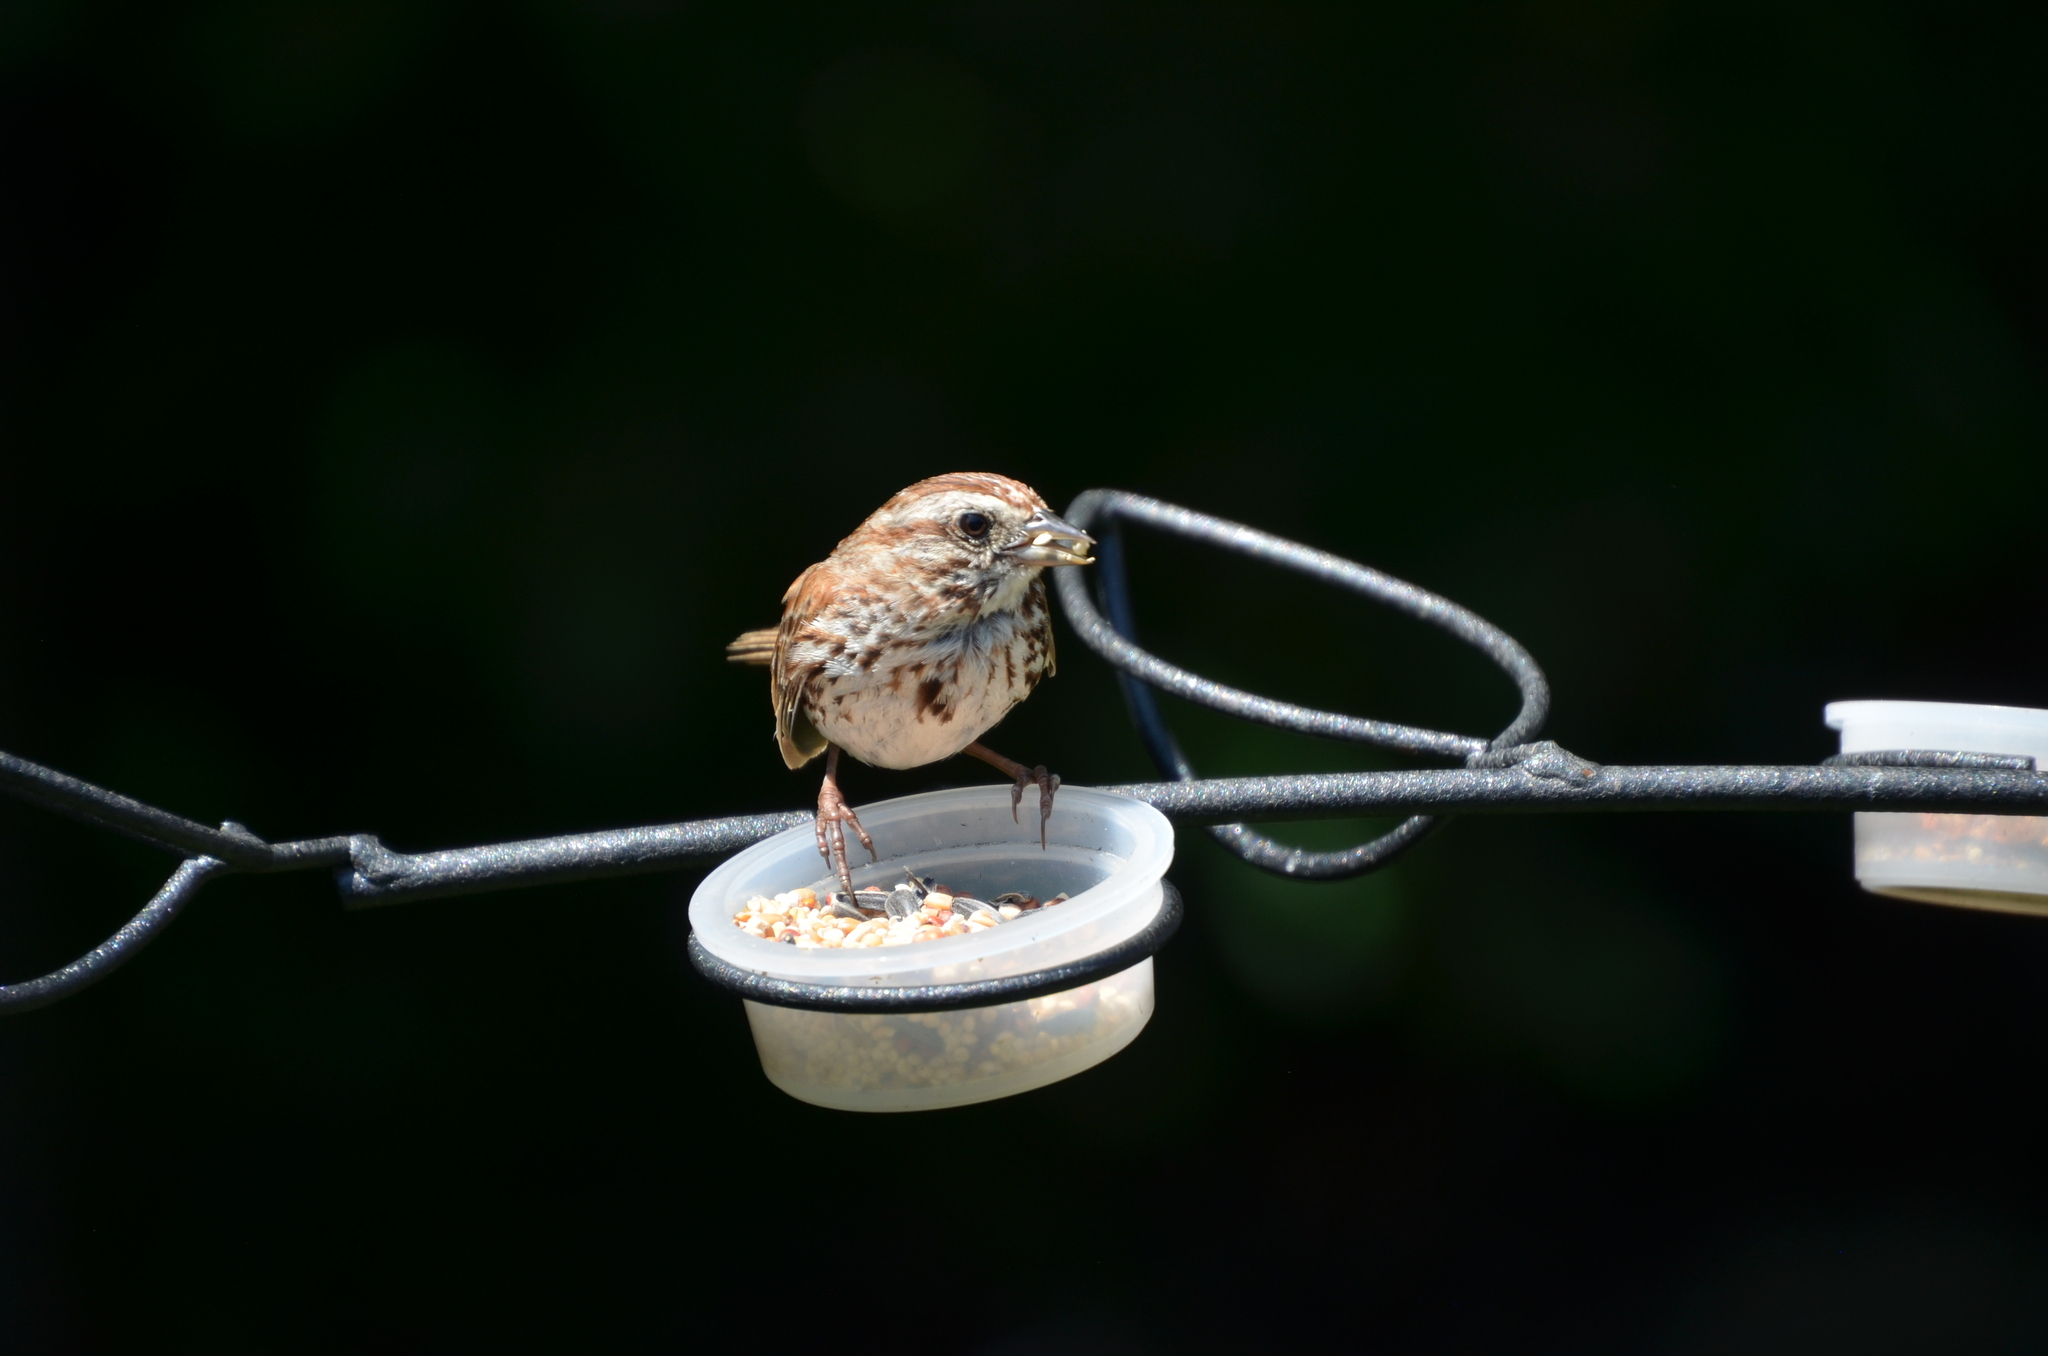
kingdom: Animalia
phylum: Chordata
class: Aves
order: Passeriformes
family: Passerellidae
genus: Melospiza
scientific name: Melospiza melodia
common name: Song sparrow
